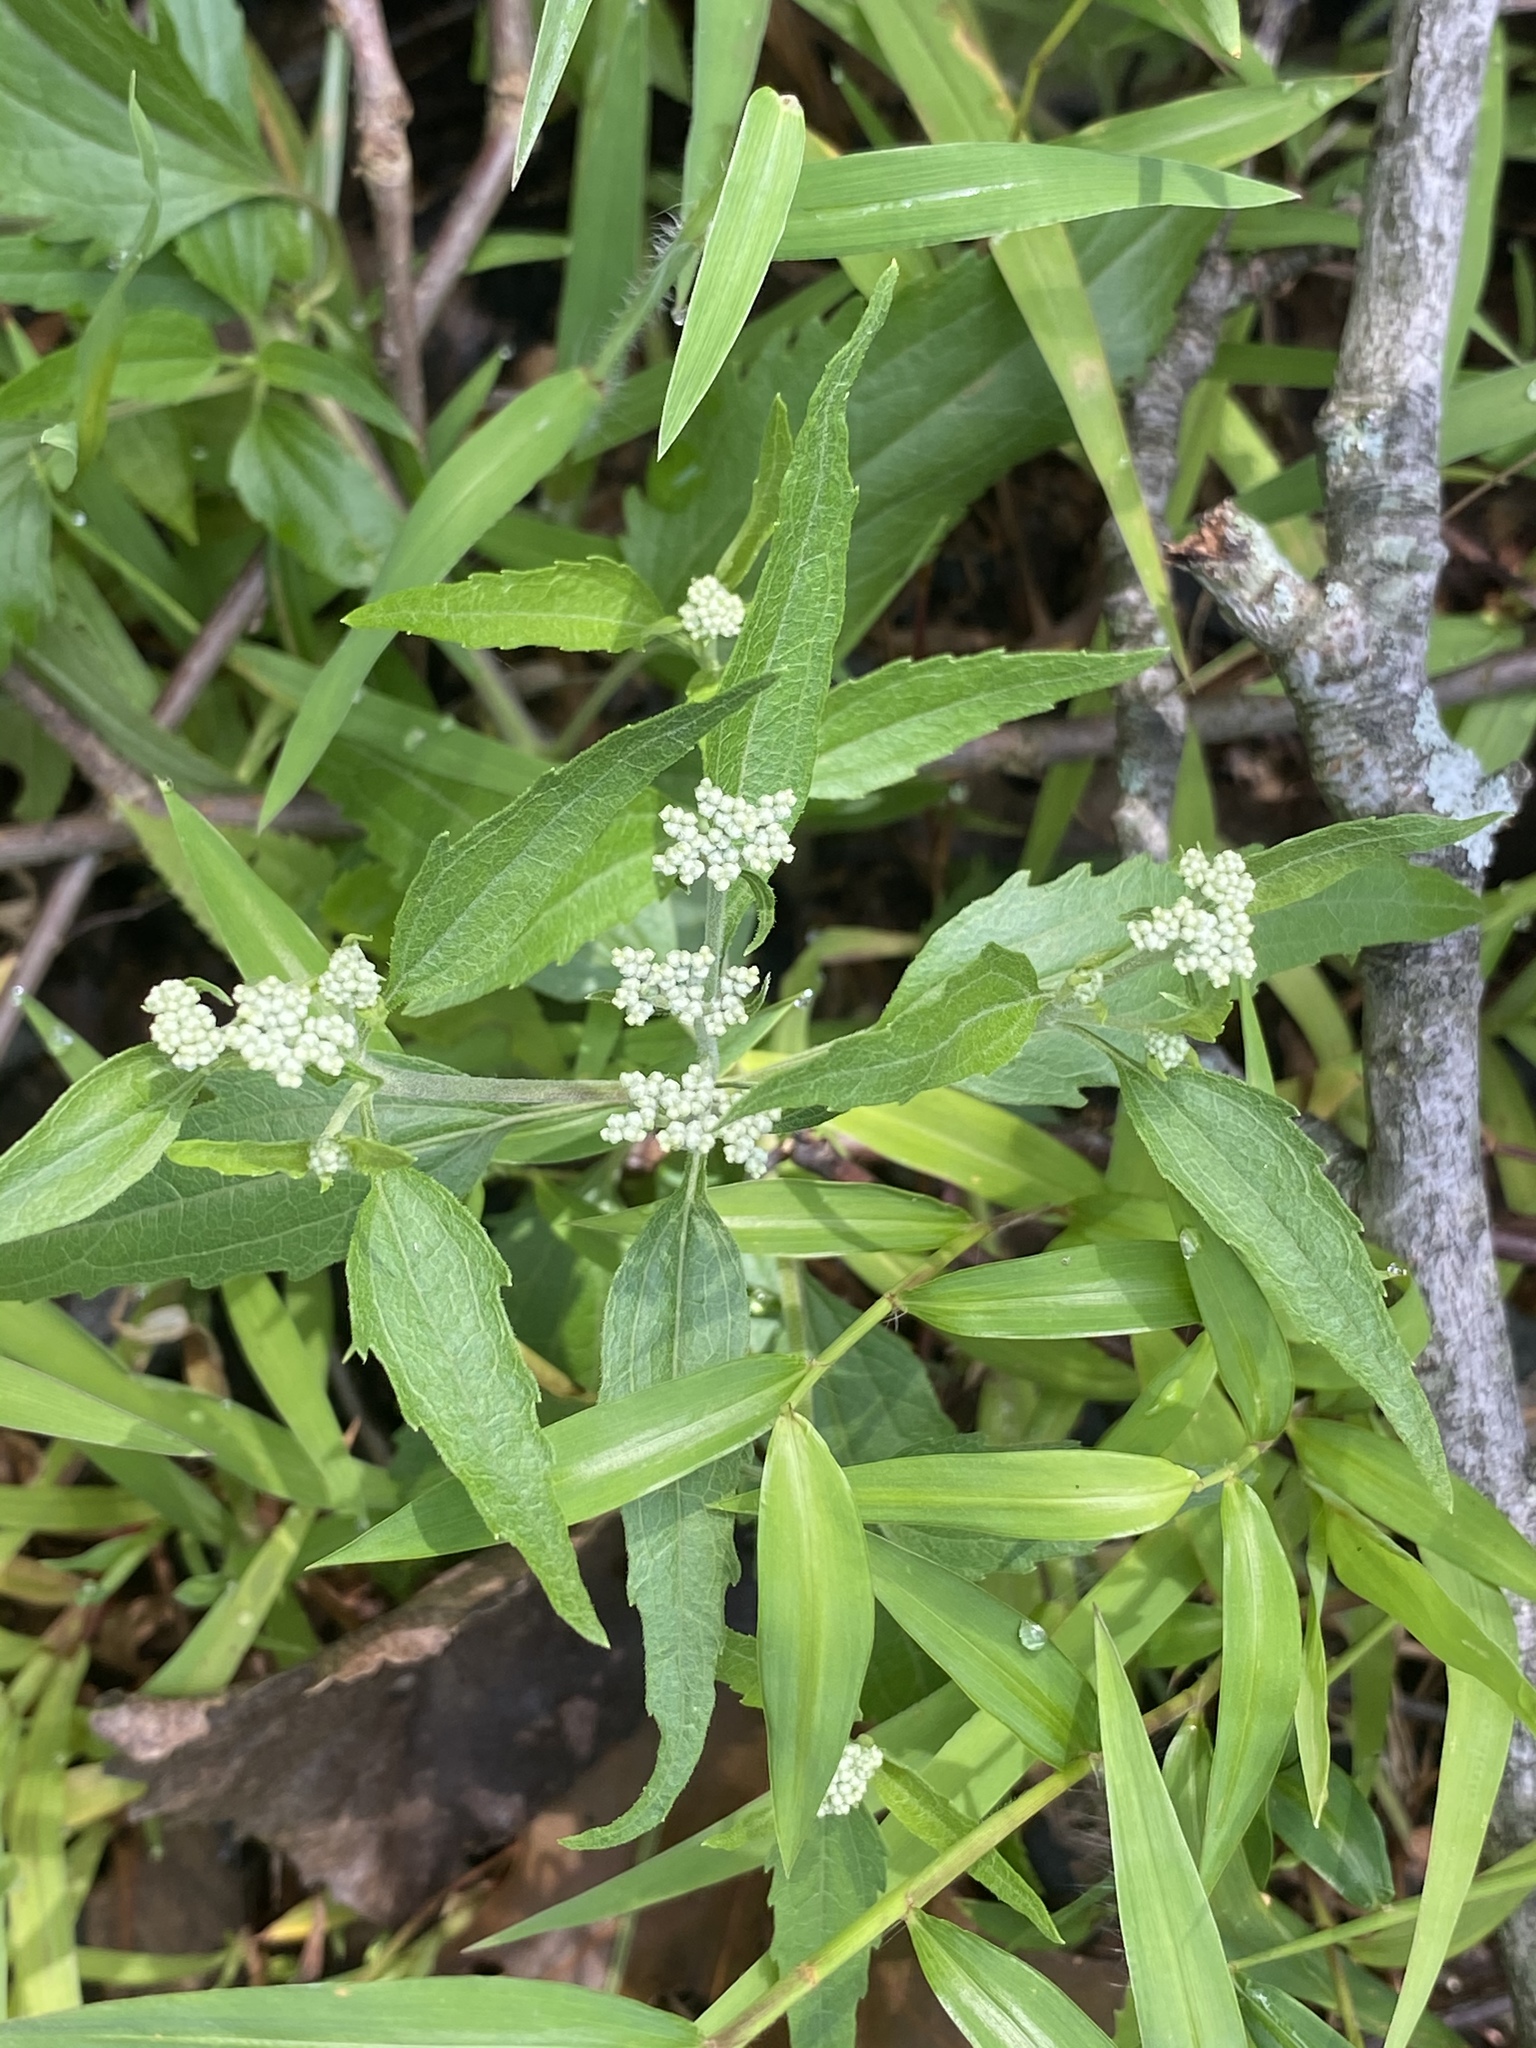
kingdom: Plantae
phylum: Tracheophyta
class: Magnoliopsida
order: Asterales
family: Asteraceae
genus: Eupatorium
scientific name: Eupatorium serotinum
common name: Late boneset
